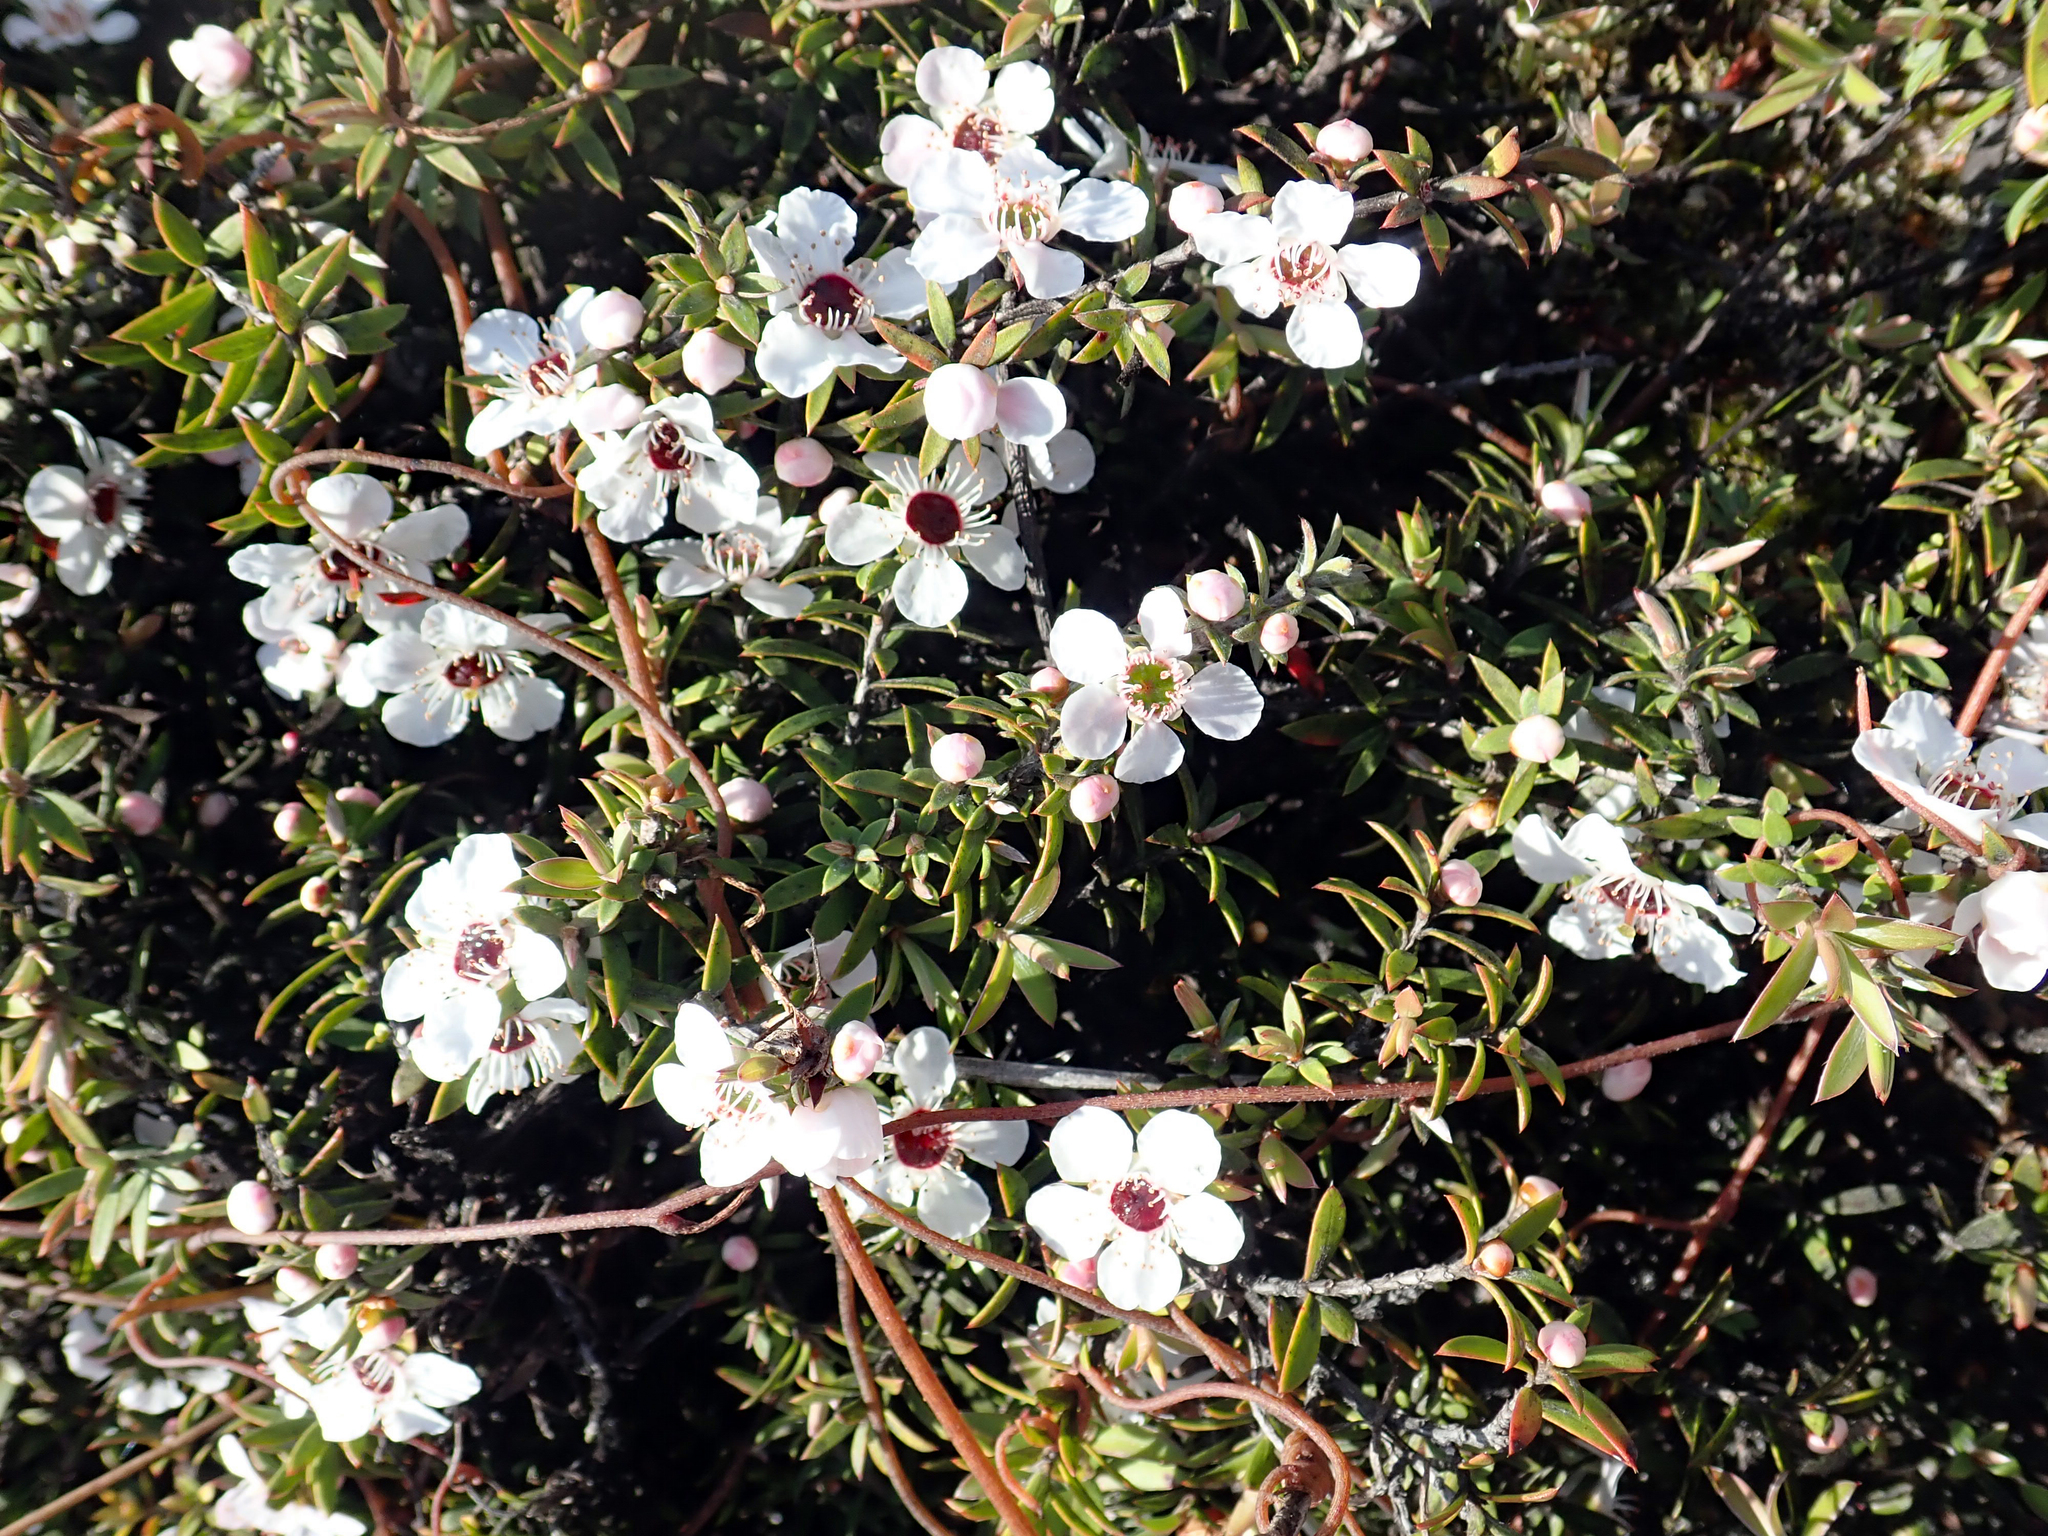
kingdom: Plantae
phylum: Tracheophyta
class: Magnoliopsida
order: Myrtales
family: Myrtaceae
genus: Leptospermum
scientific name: Leptospermum scoparium
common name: Broom tea-tree
